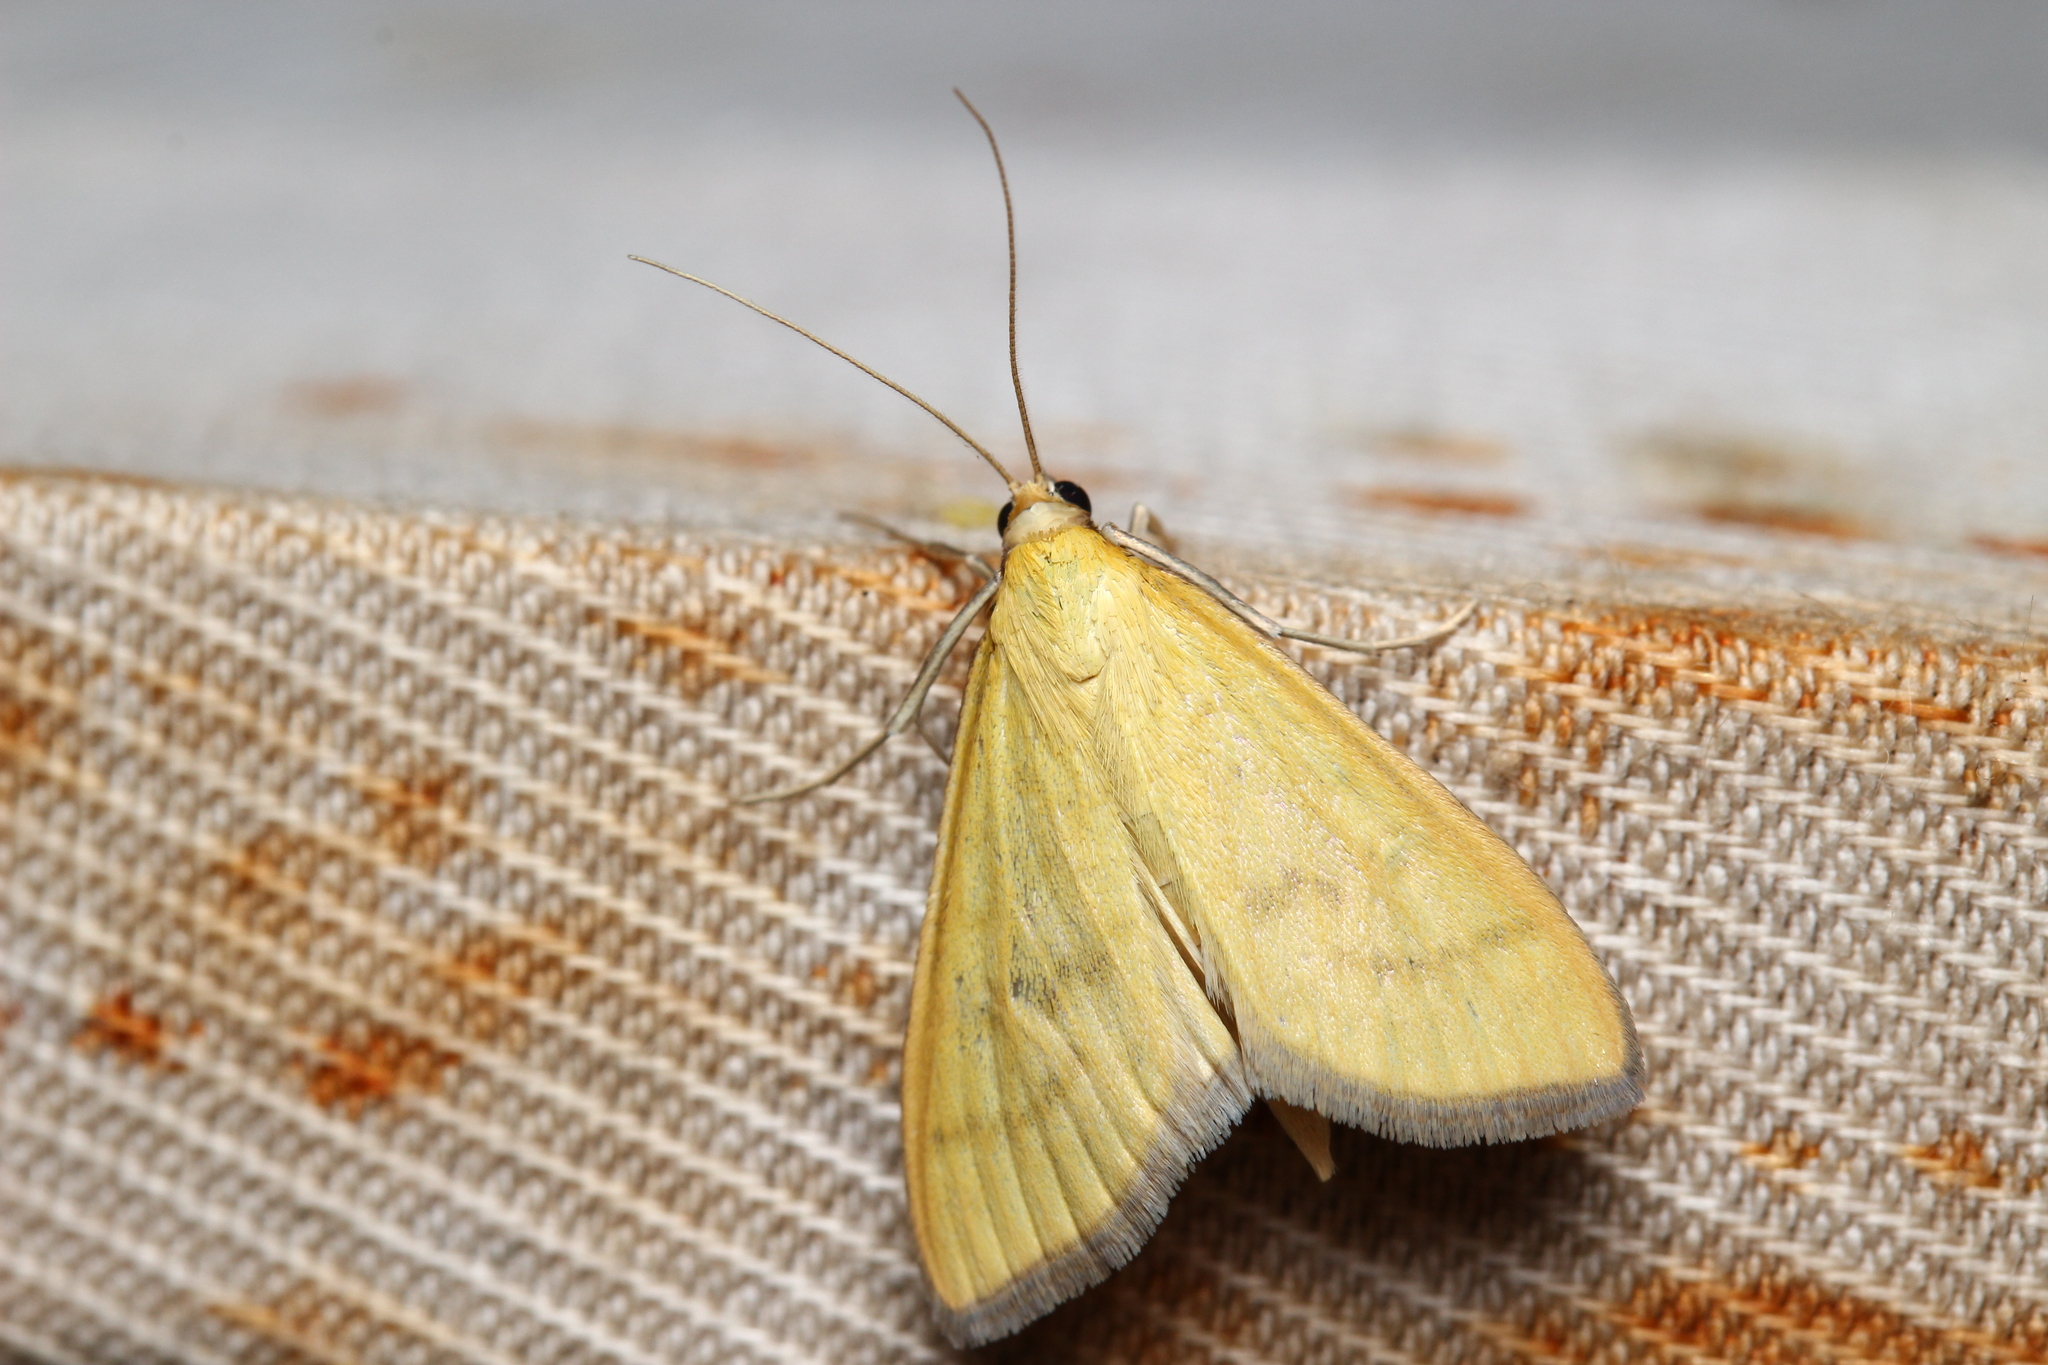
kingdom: Animalia
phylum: Arthropoda
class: Insecta
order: Lepidoptera
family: Crambidae
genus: Mecyna
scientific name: Mecyna flavalis
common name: Yellow pearl
